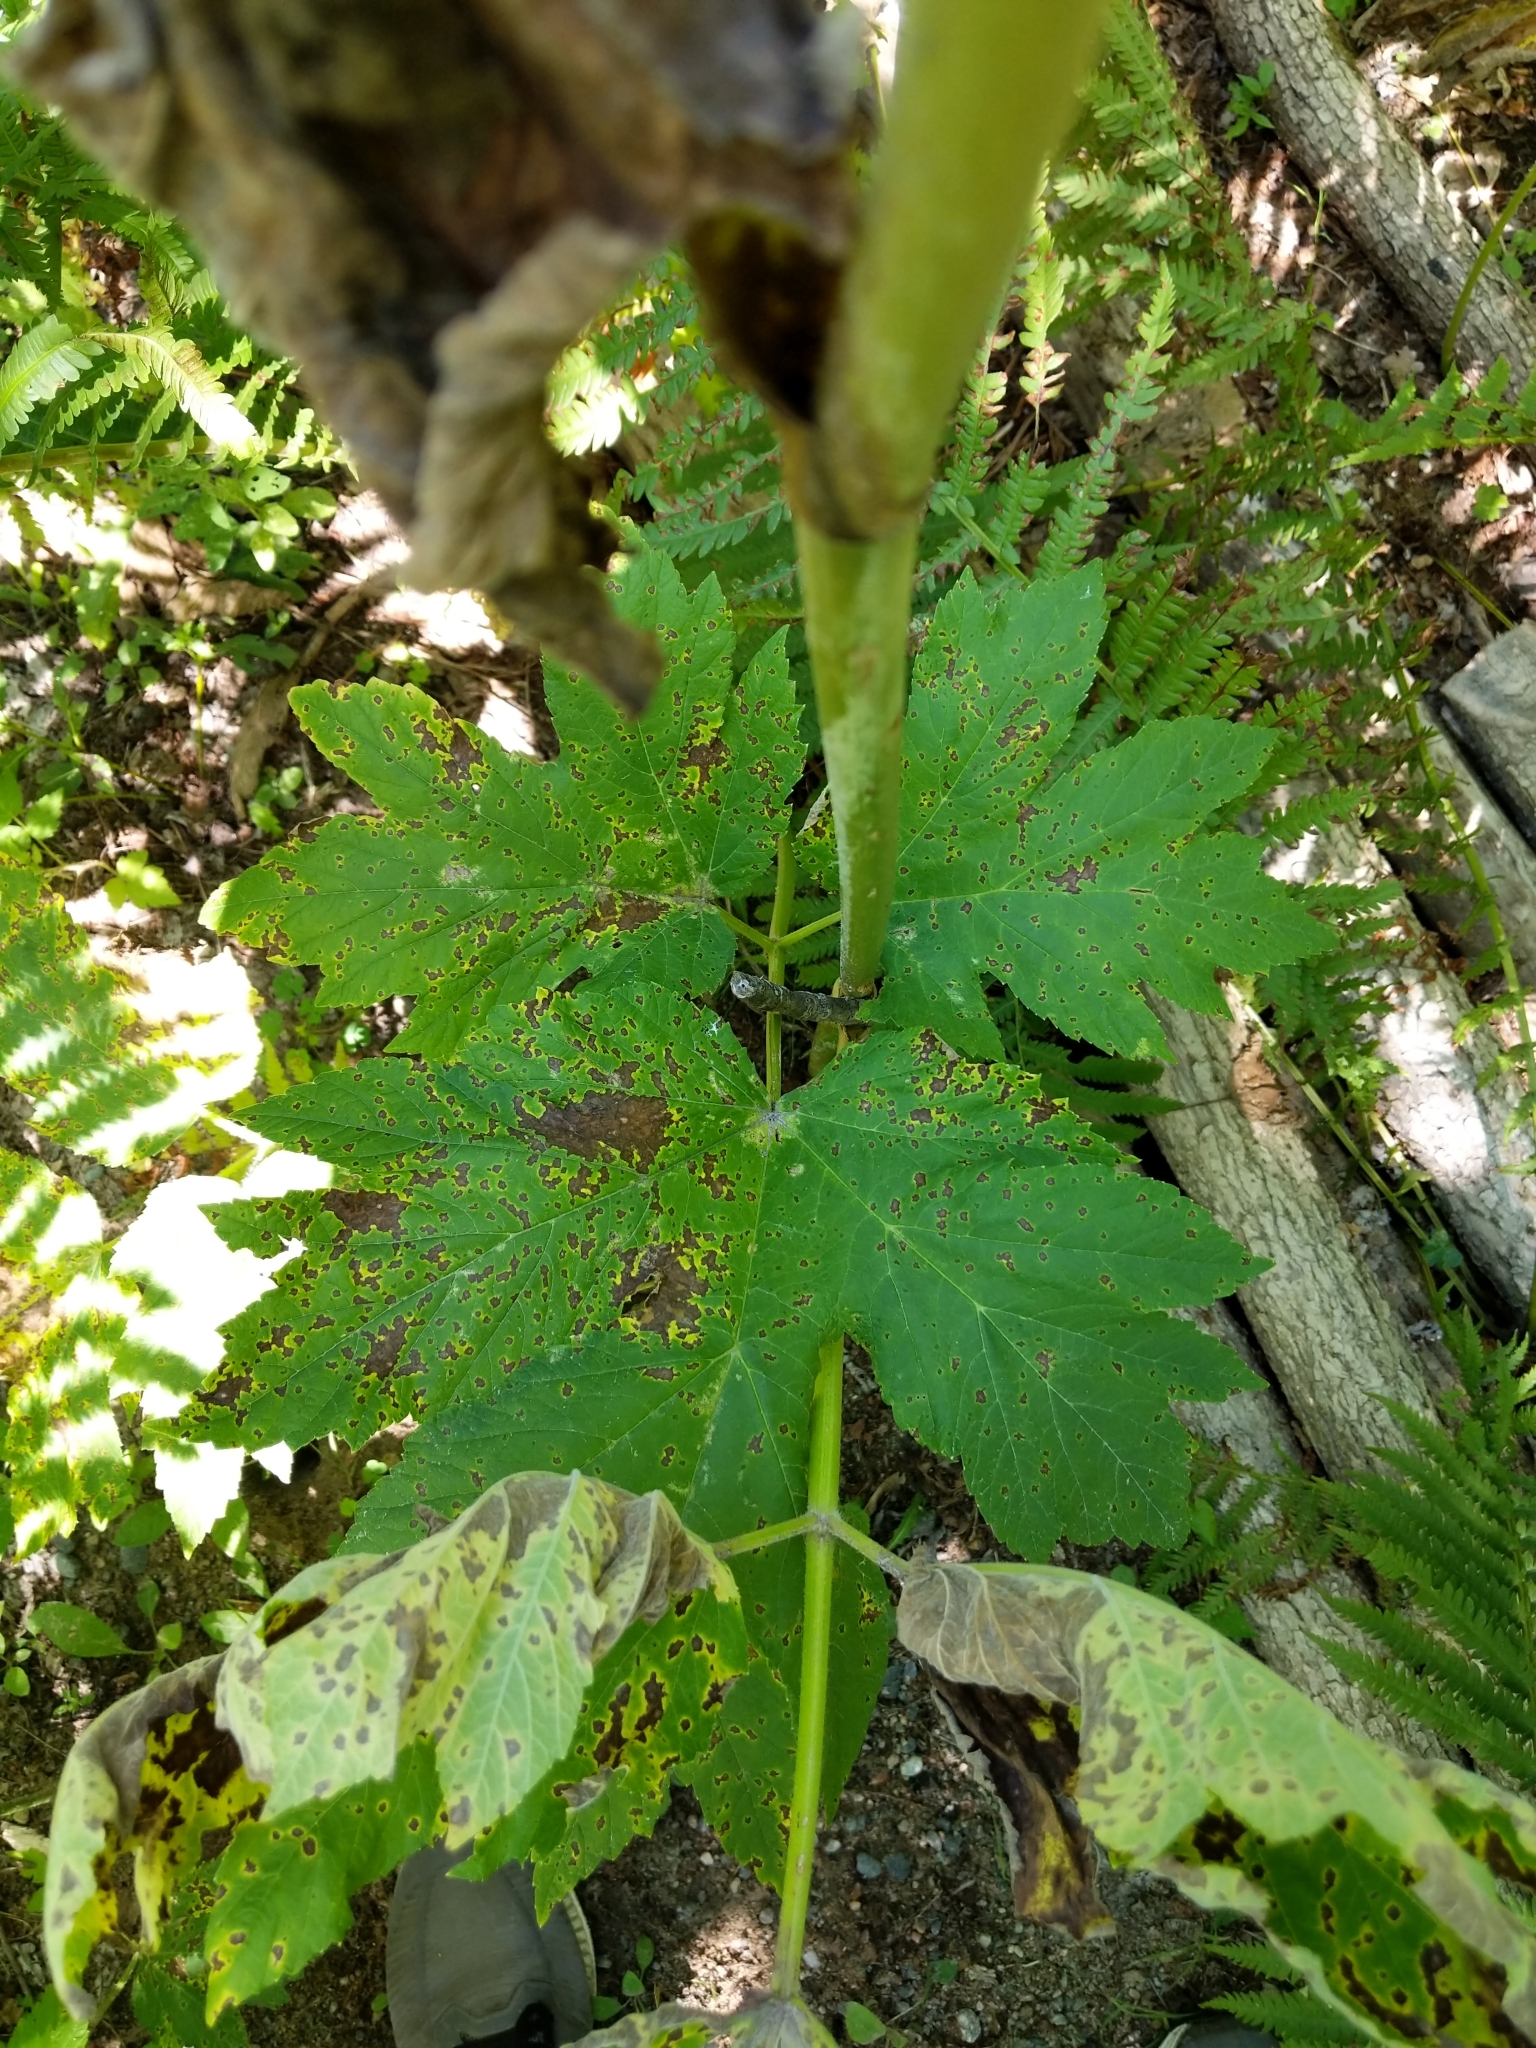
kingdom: Plantae
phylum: Tracheophyta
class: Magnoliopsida
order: Apiales
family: Apiaceae
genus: Heracleum
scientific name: Heracleum maximum
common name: American cow parsnip
